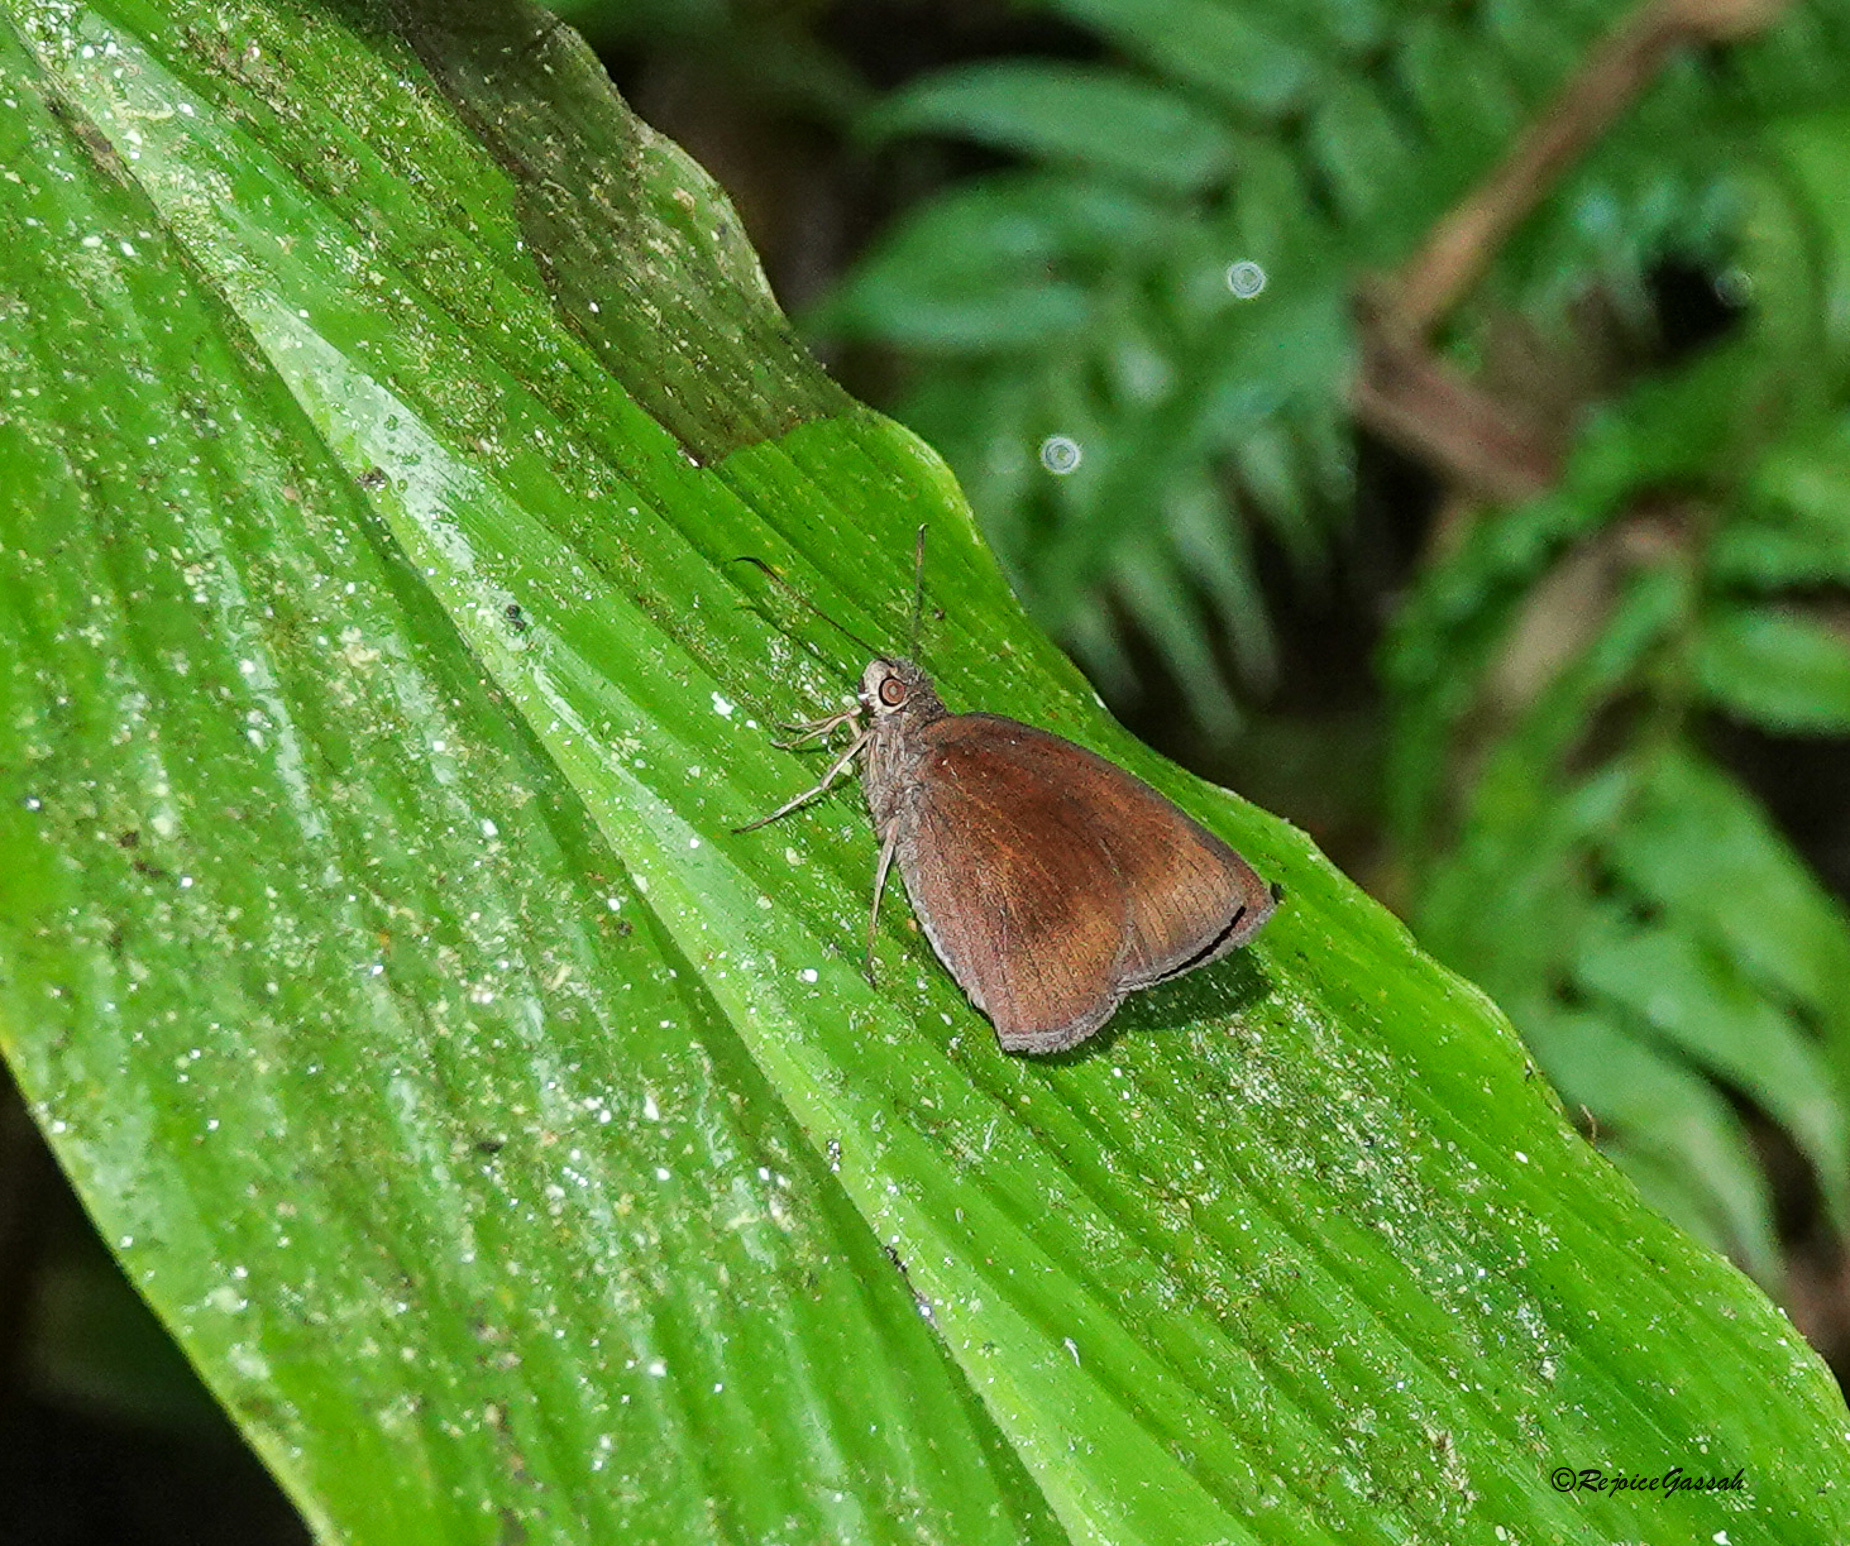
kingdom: Animalia
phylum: Arthropoda
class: Insecta
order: Lepidoptera
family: Hesperiidae
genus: Ancistroides
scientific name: Ancistroides nigrita
